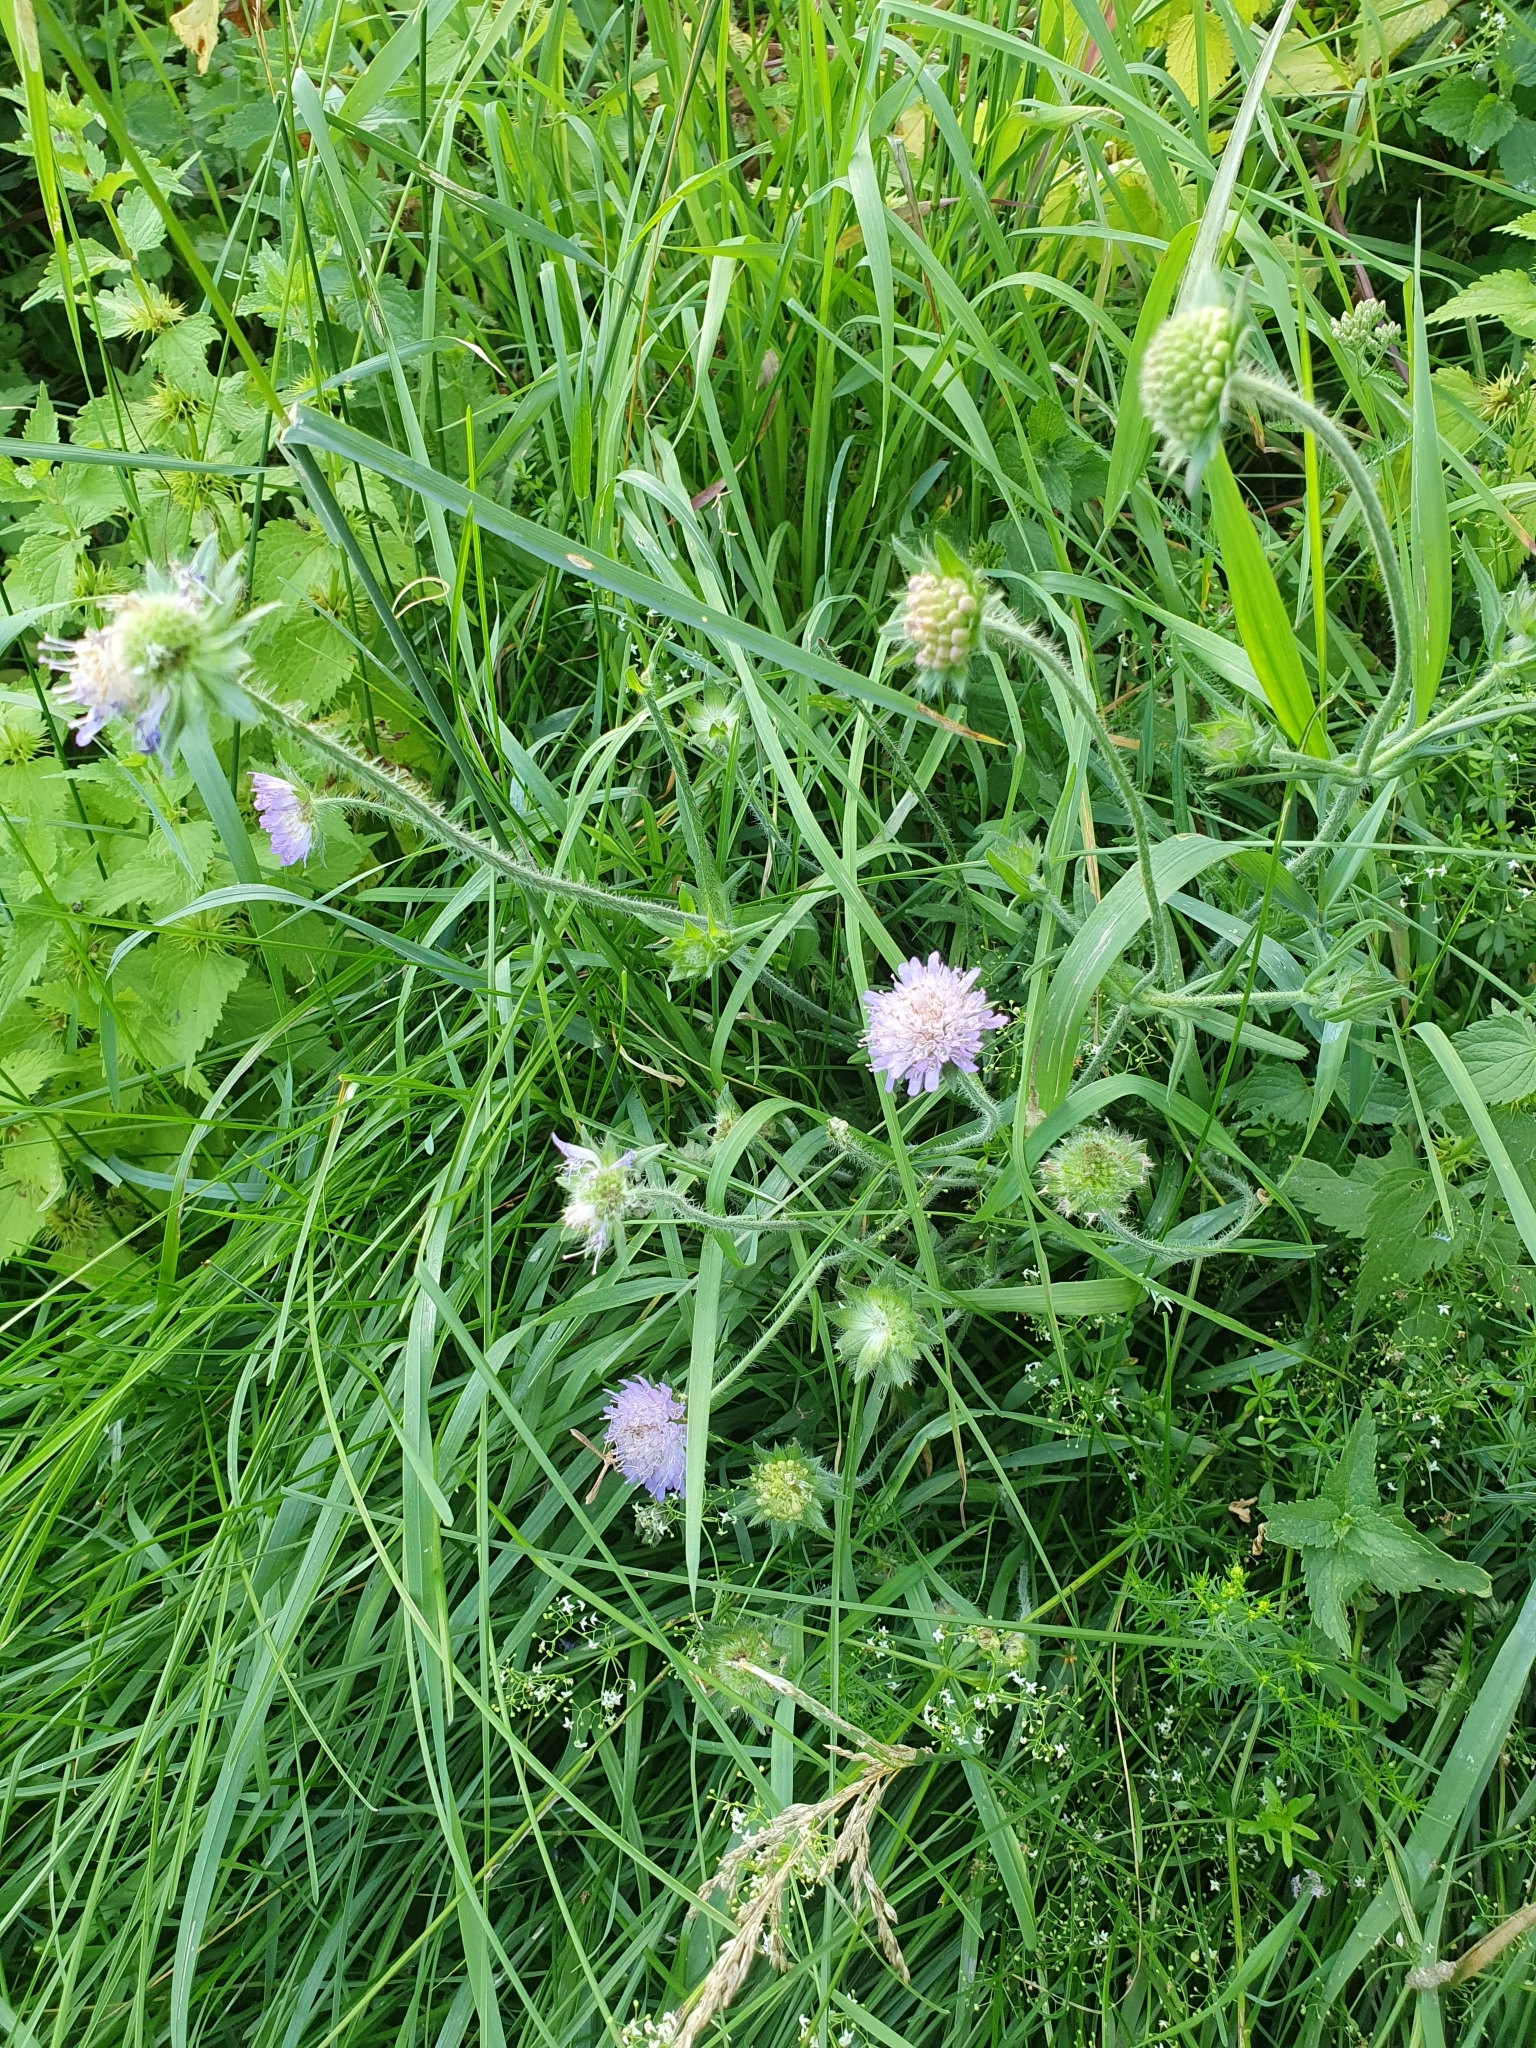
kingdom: Plantae
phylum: Tracheophyta
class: Magnoliopsida
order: Dipsacales
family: Caprifoliaceae
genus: Knautia
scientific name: Knautia arvensis
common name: Field scabiosa
